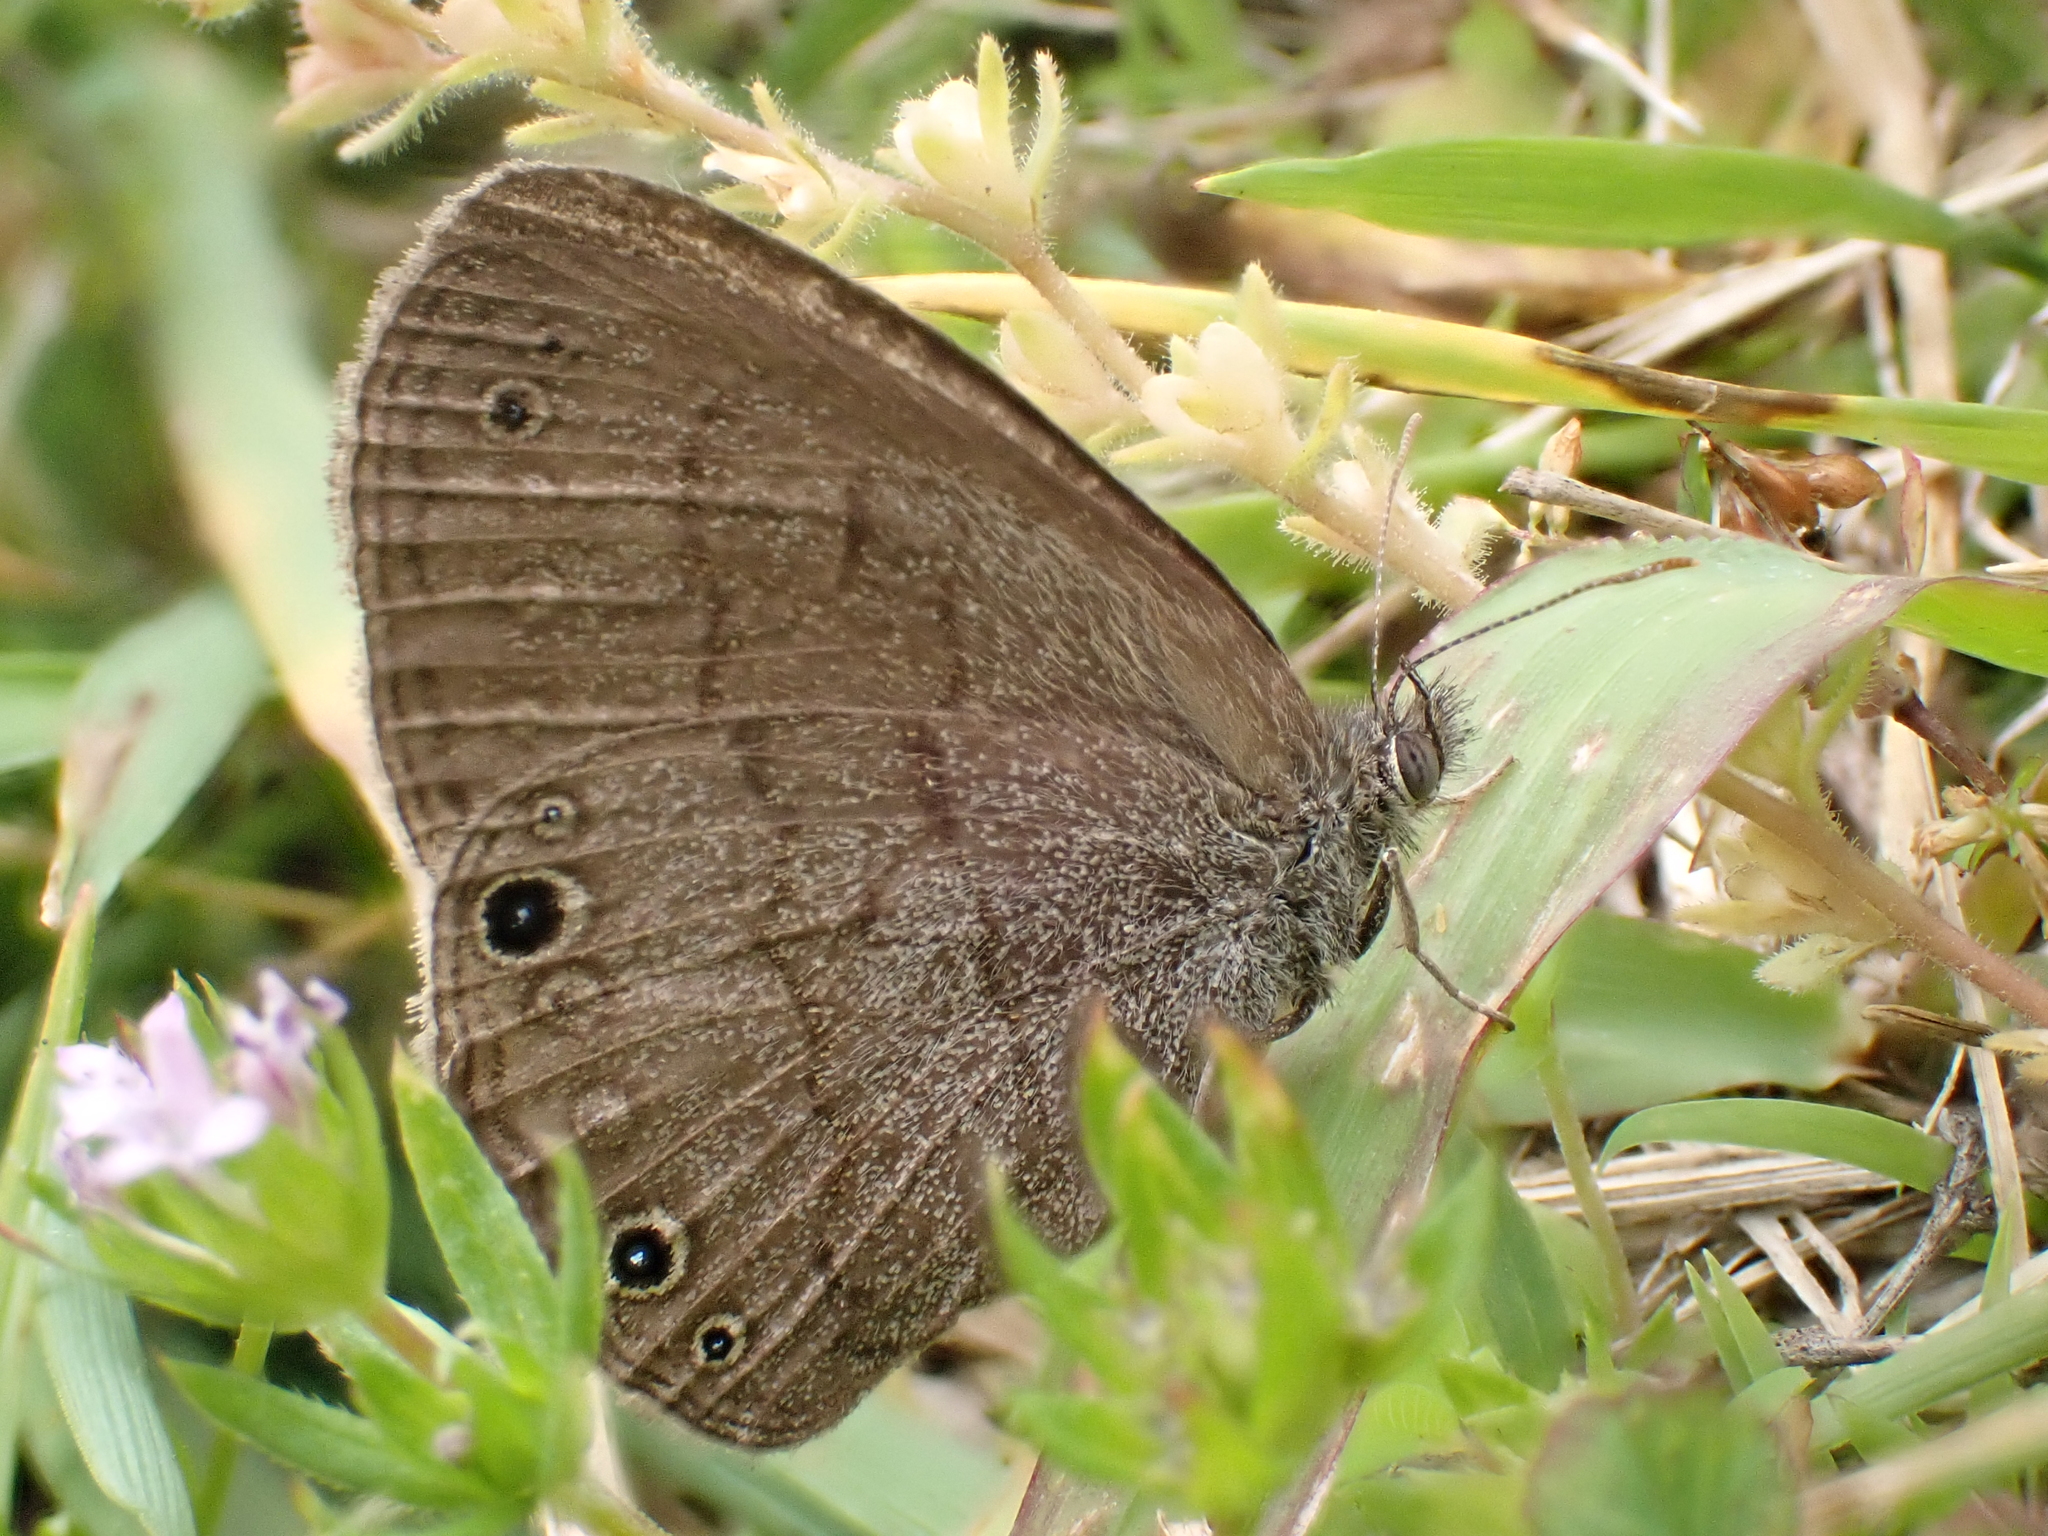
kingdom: Animalia
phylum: Arthropoda
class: Insecta
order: Lepidoptera
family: Nymphalidae
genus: Hermeuptychia
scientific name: Hermeuptychia hermes
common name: Hermes satyr
